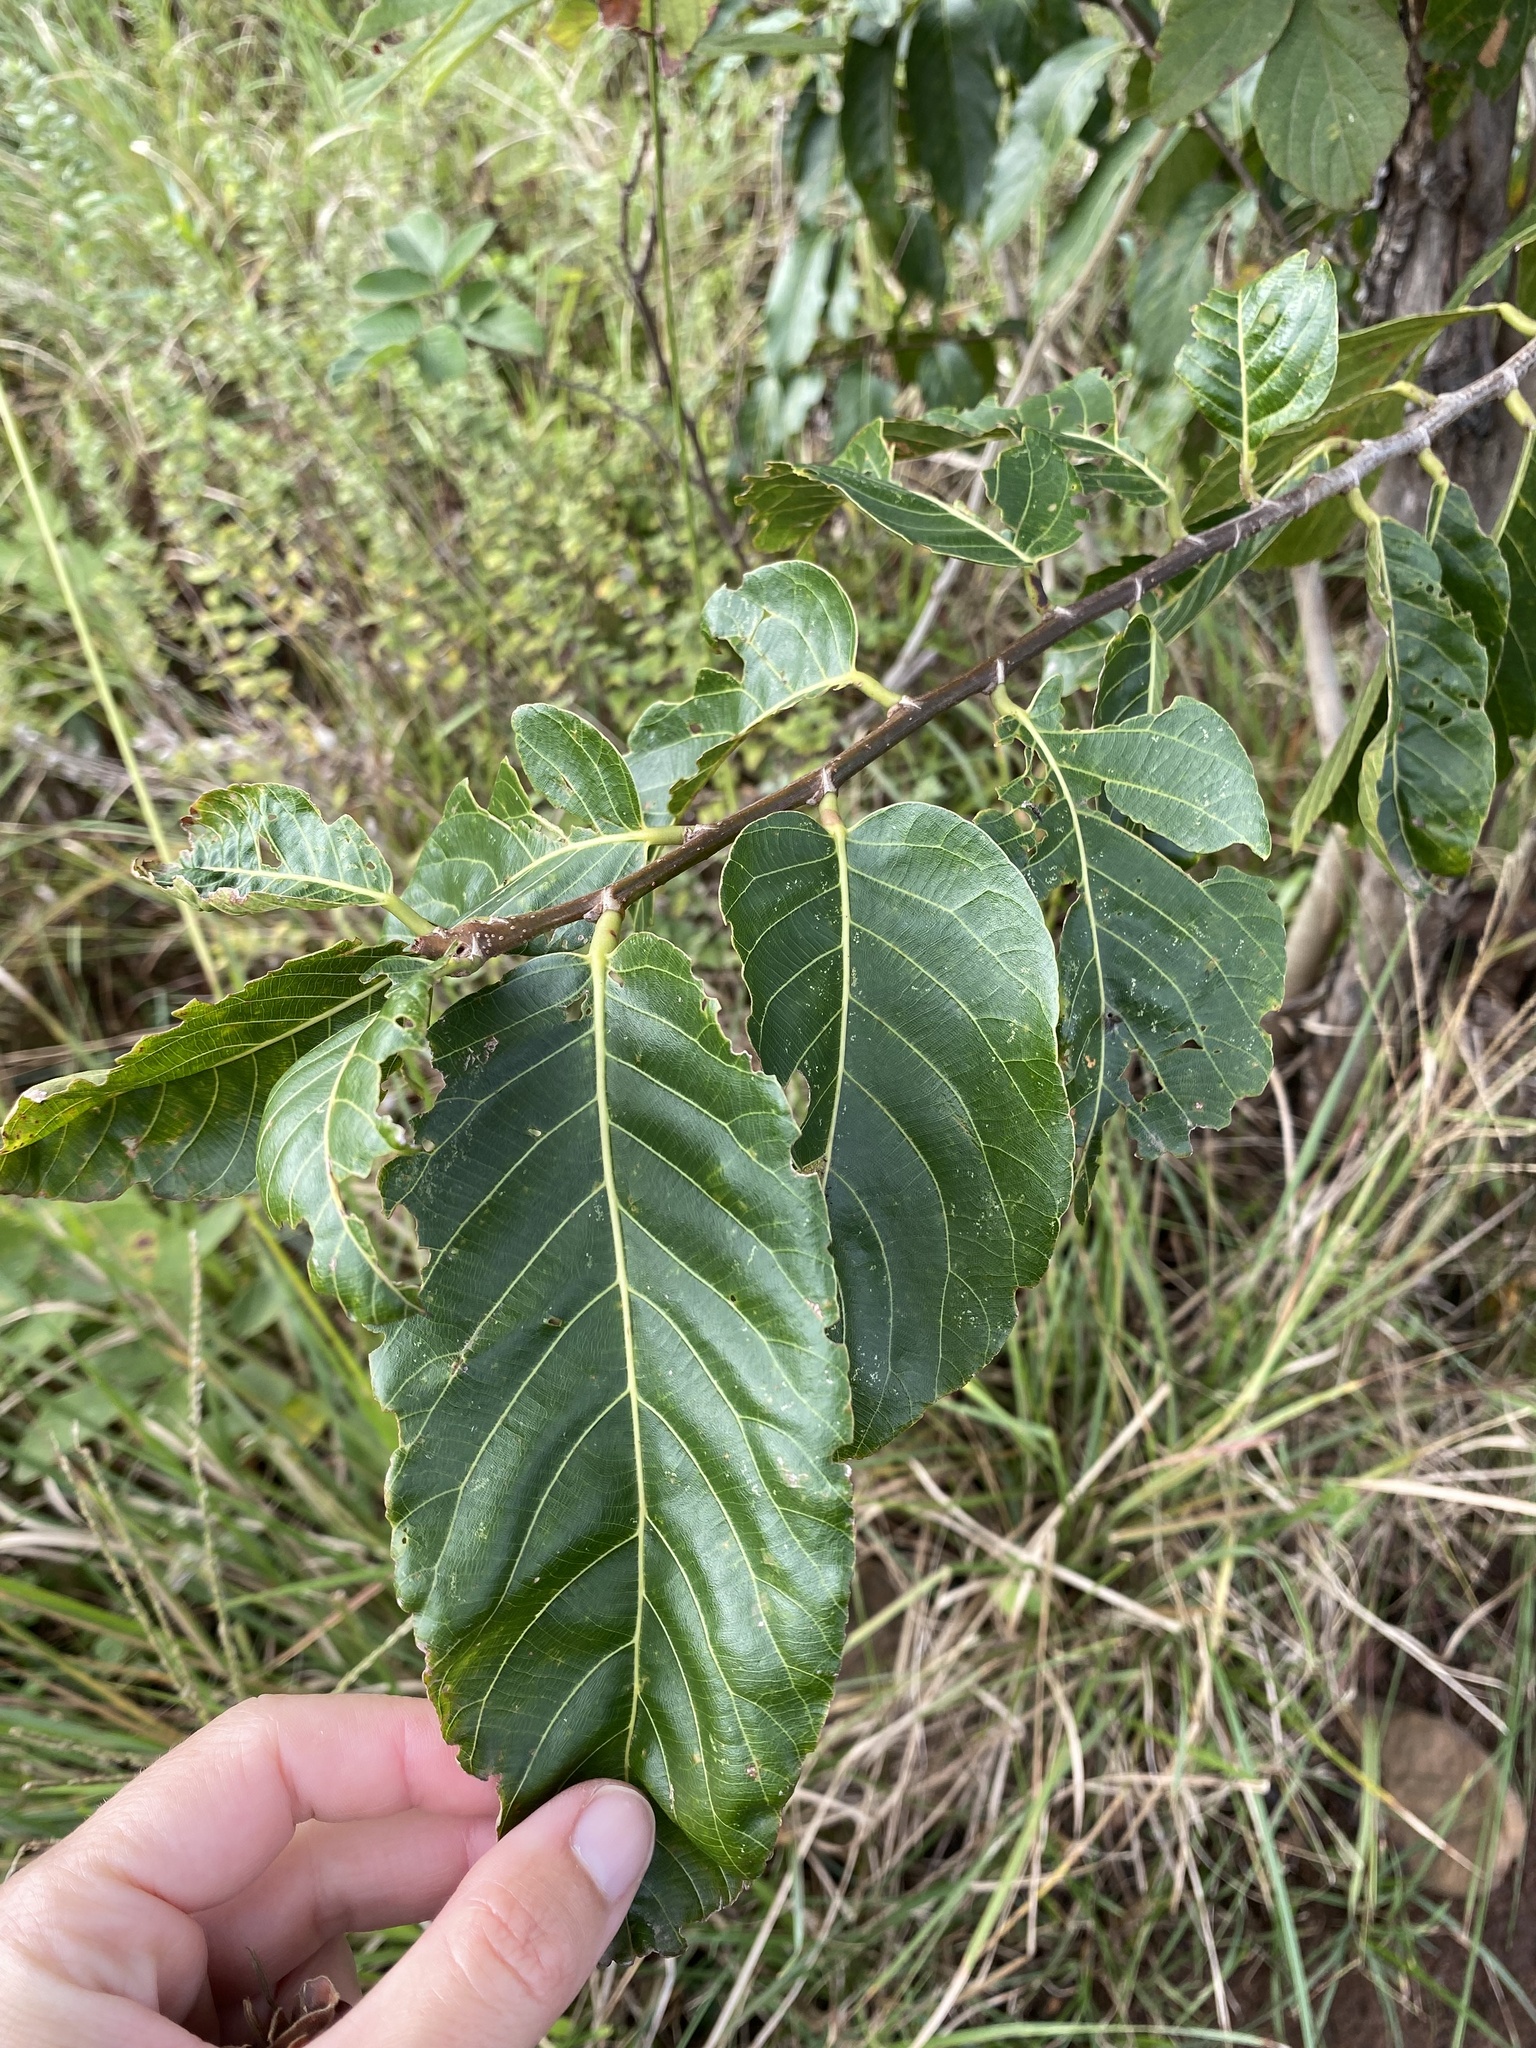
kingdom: Plantae
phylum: Tracheophyta
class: Magnoliopsida
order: Malpighiales
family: Phyllanthaceae
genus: Bridelia
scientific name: Bridelia micrantha
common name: Bridelia
